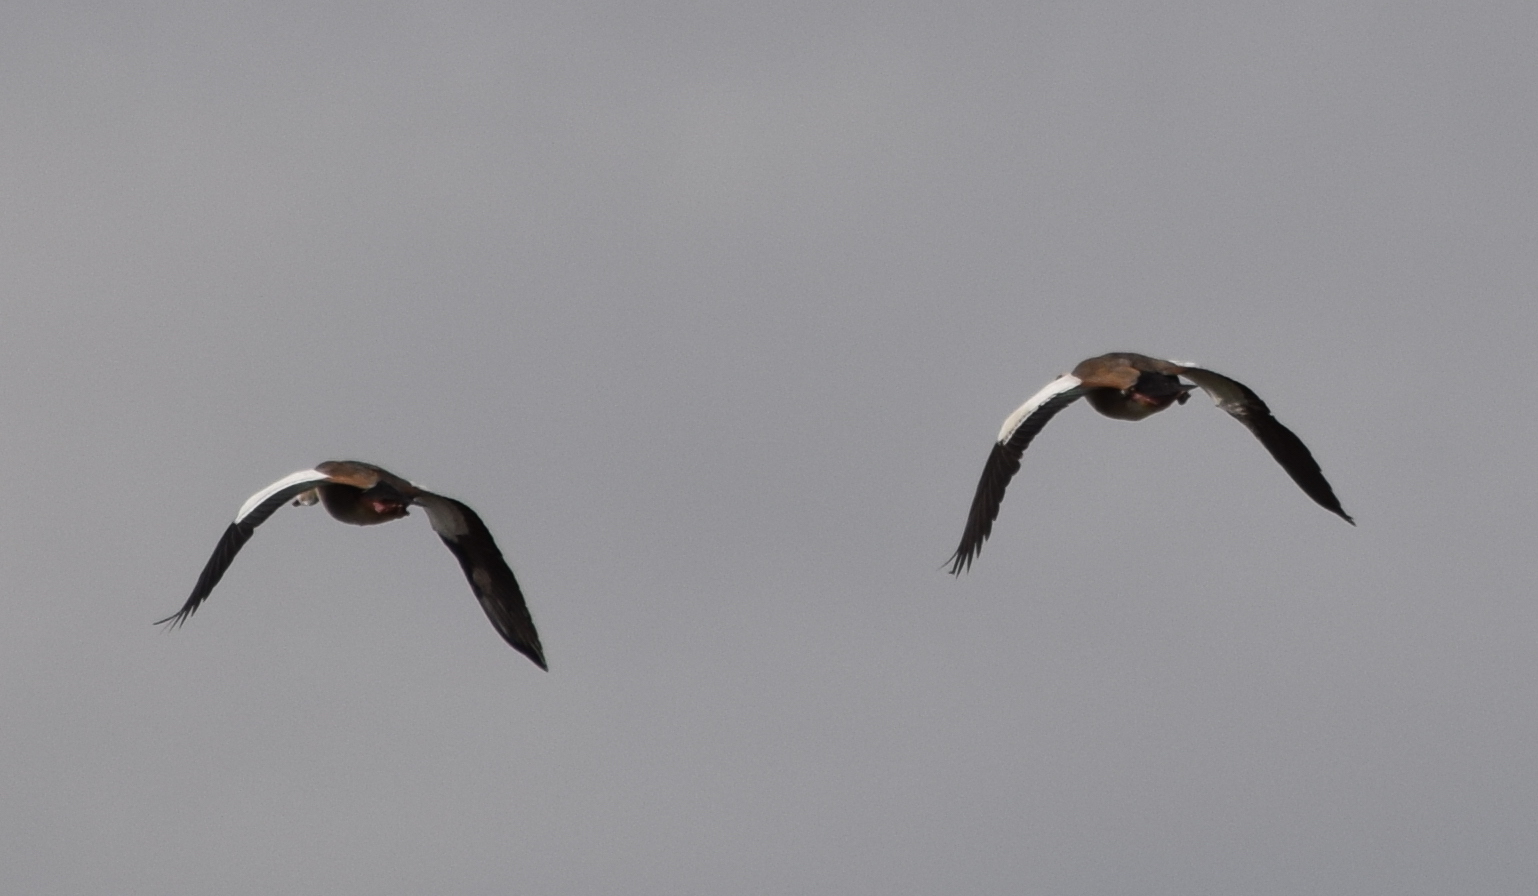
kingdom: Animalia
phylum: Chordata
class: Aves
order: Anseriformes
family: Anatidae
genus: Alopochen
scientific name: Alopochen aegyptiaca
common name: Egyptian goose
